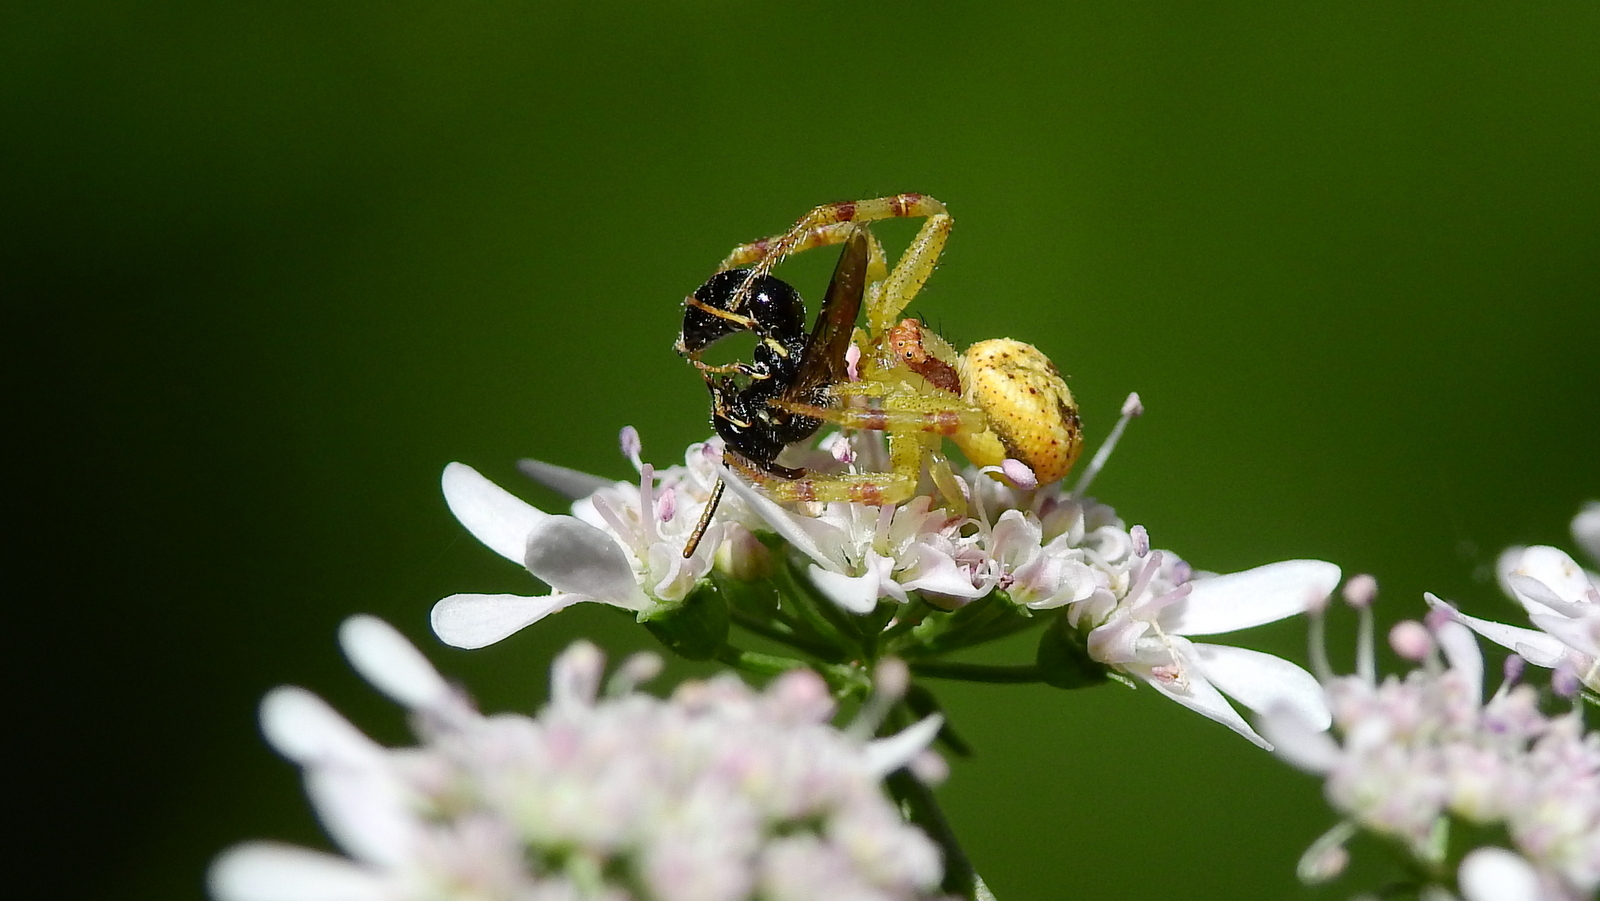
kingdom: Animalia
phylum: Arthropoda
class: Arachnida
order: Araneae
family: Thomisidae
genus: Misumenops
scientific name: Misumenops
